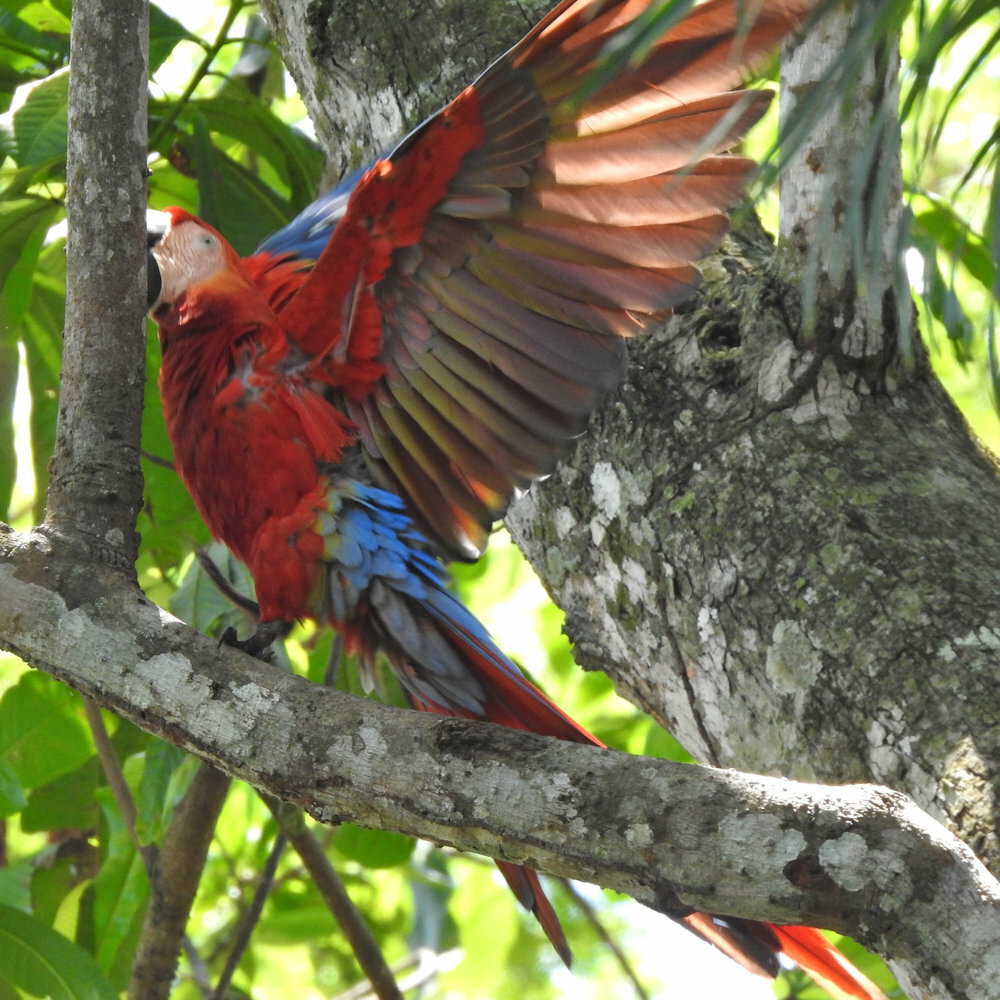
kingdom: Animalia
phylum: Chordata
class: Aves
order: Psittaciformes
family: Psittacidae
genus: Ara
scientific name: Ara macao
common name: Scarlet macaw
